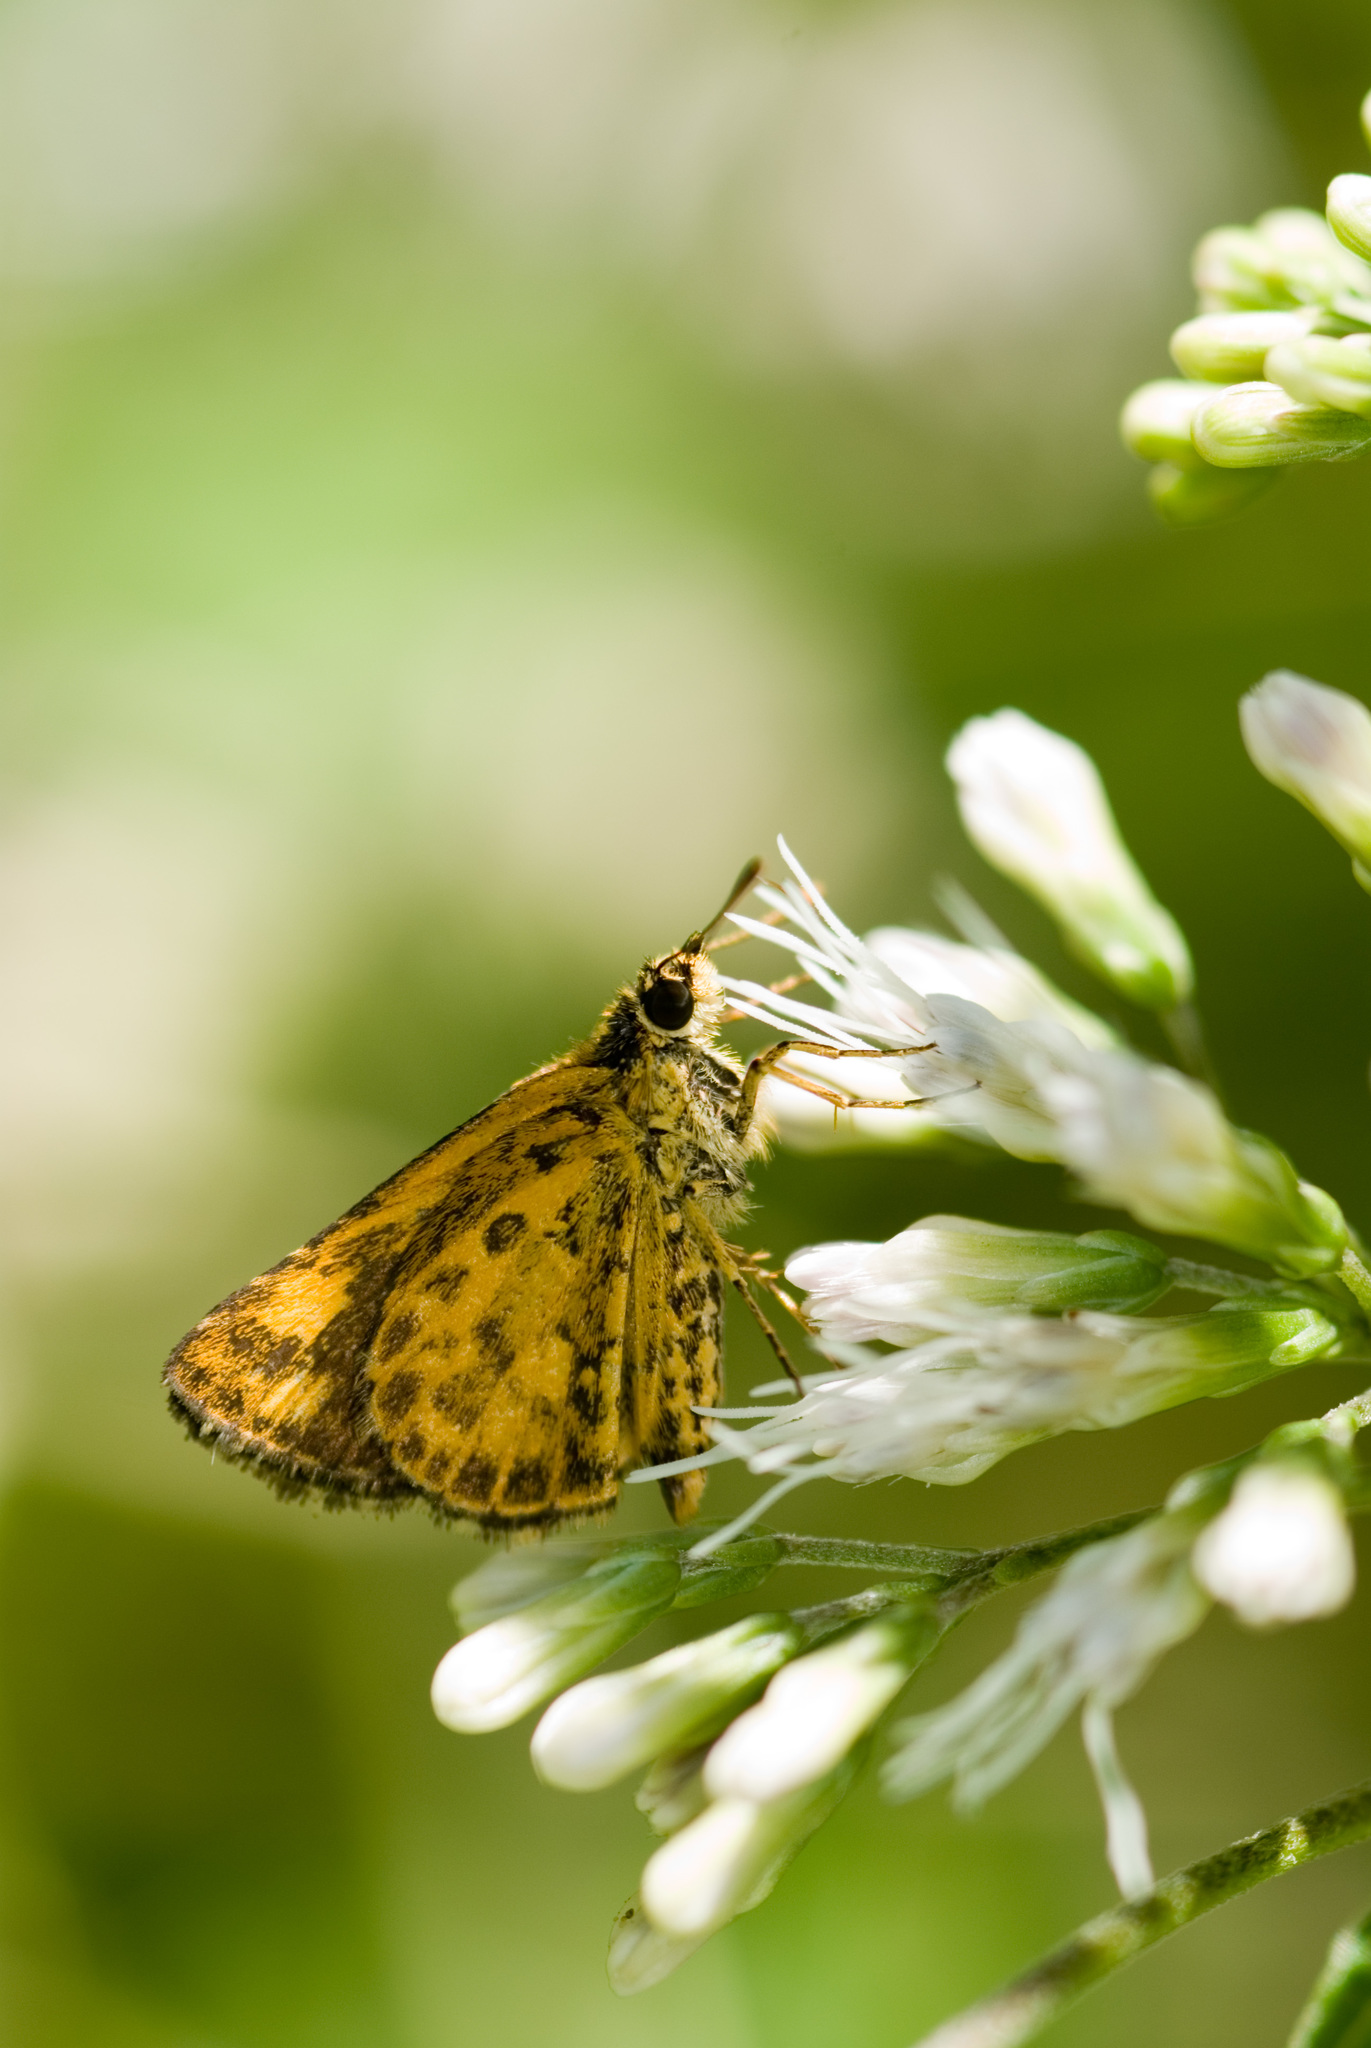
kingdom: Animalia
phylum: Arthropoda
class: Insecta
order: Lepidoptera
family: Hesperiidae
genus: Ampittia
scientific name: Ampittia dioscorides
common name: Common bush hopper
